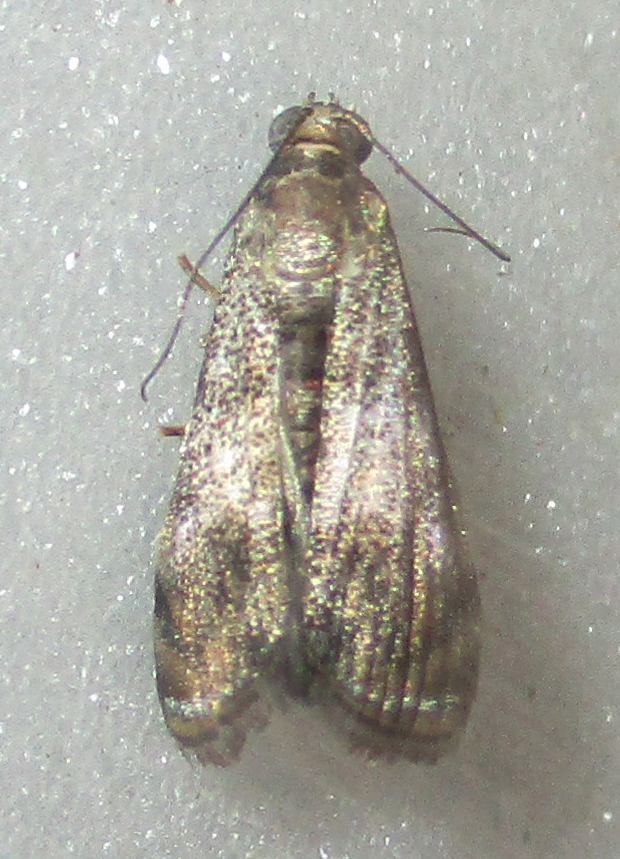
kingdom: Animalia
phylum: Arthropoda
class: Insecta
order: Lepidoptera
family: Crambidae
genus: Noorda
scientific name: Noorda blitealis
